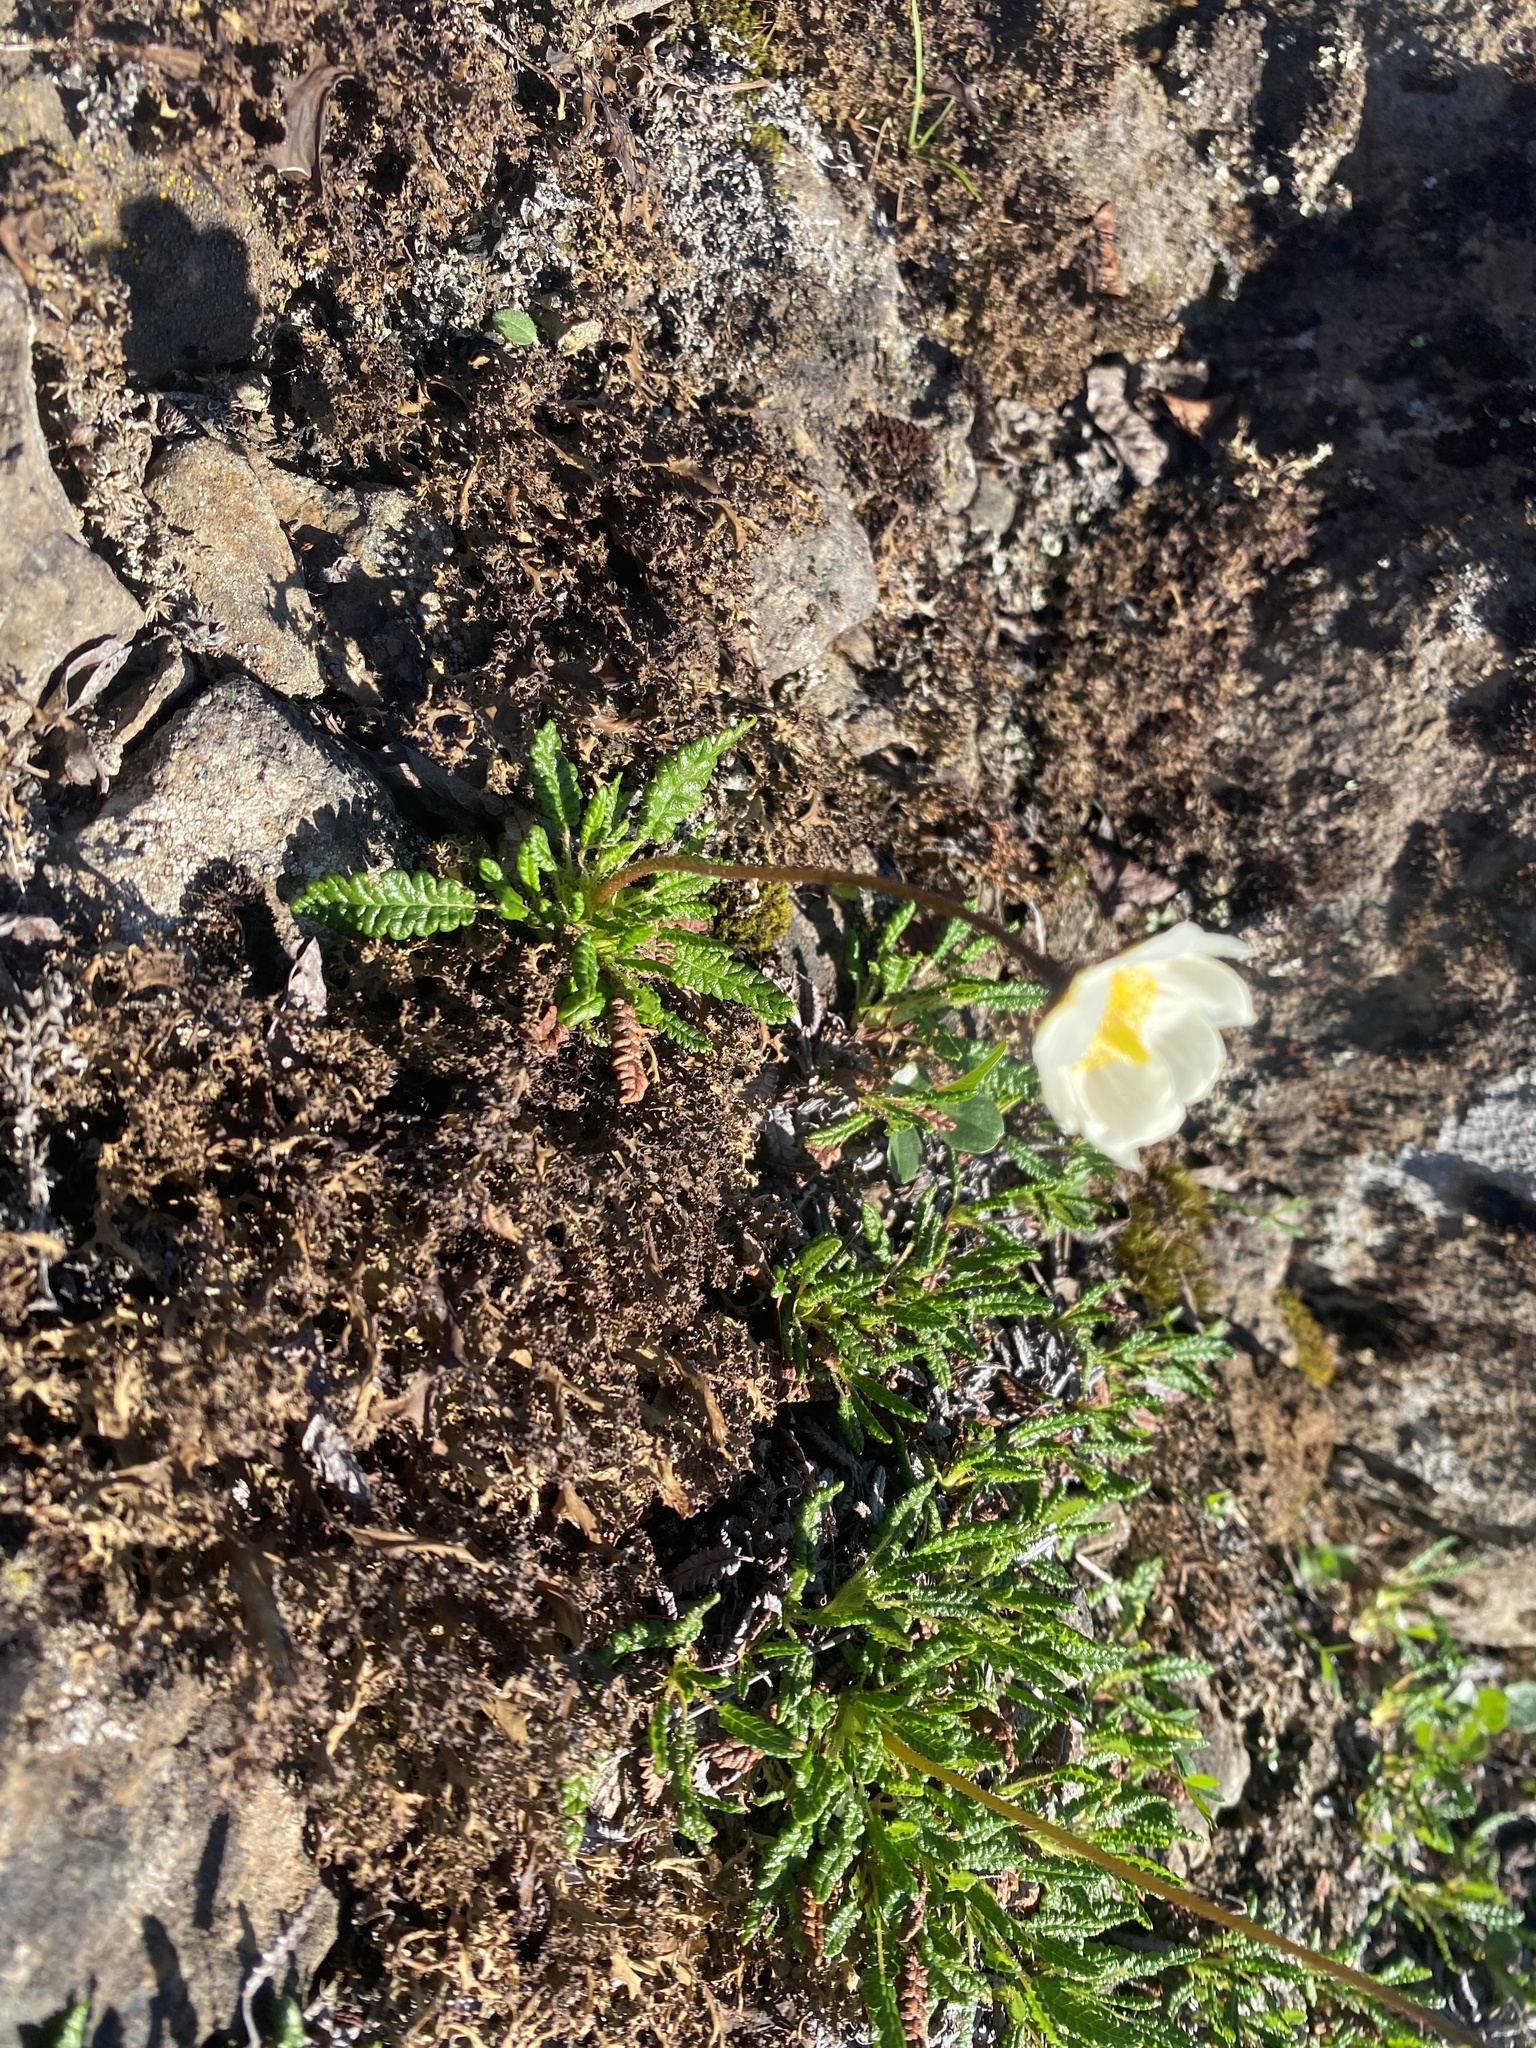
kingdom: Plantae
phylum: Tracheophyta
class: Magnoliopsida
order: Rosales
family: Rosaceae
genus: Dryas
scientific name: Dryas octopetala
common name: Eight-petal mountain-avens
